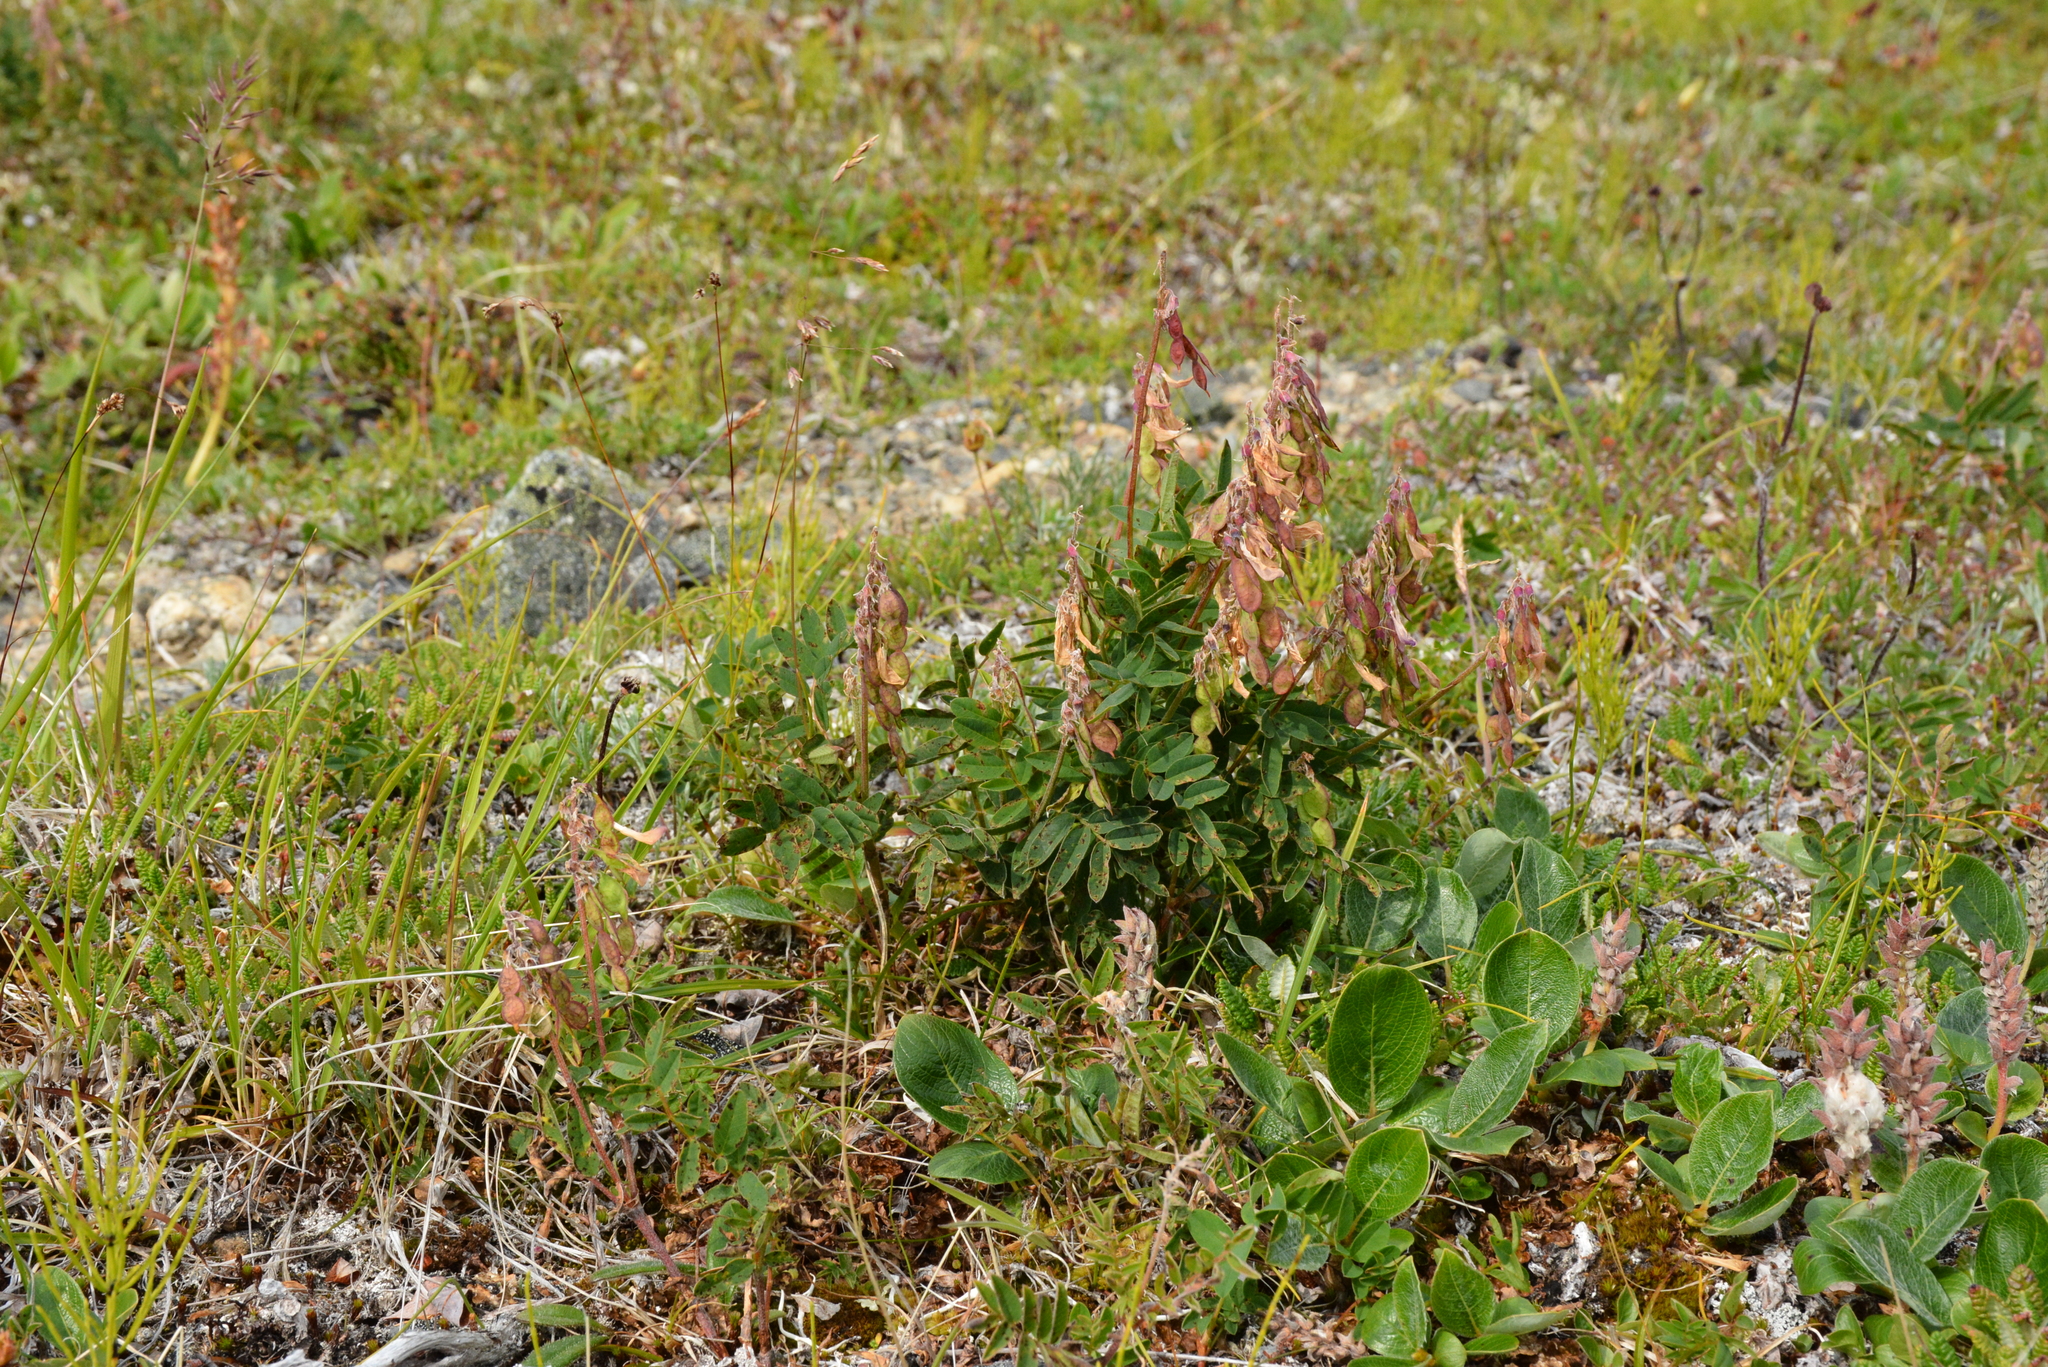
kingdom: Plantae
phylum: Tracheophyta
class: Magnoliopsida
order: Fabales
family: Fabaceae
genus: Hedysarum
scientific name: Hedysarum hedysaroides
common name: Alpine french-honeysuckle
